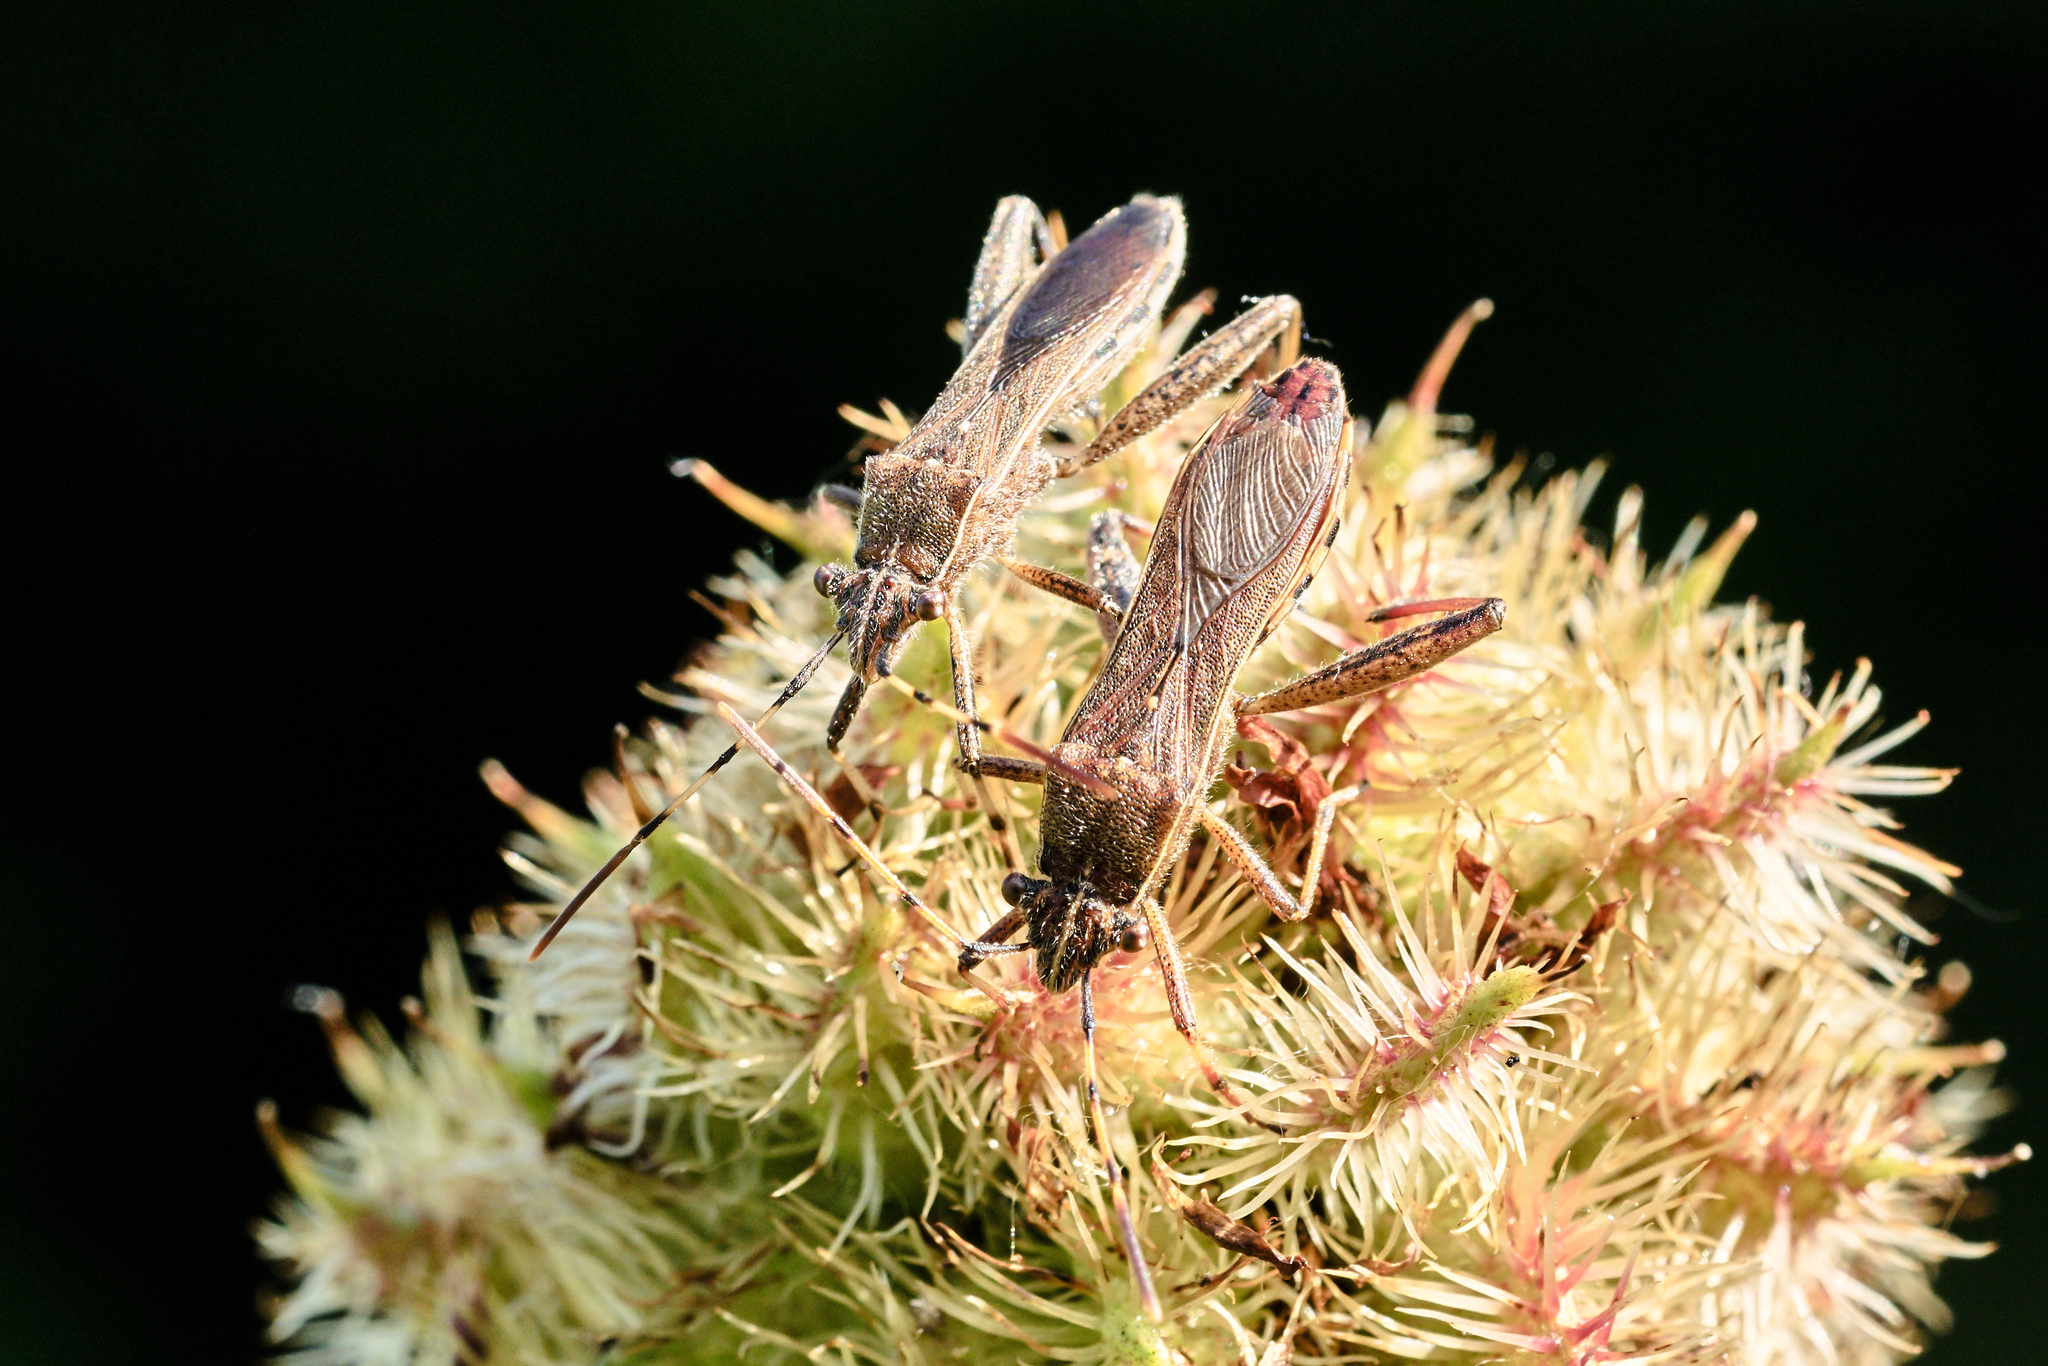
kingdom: Animalia
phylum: Arthropoda
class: Insecta
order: Hemiptera
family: Alydidae
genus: Camptopus
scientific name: Camptopus lateralis
